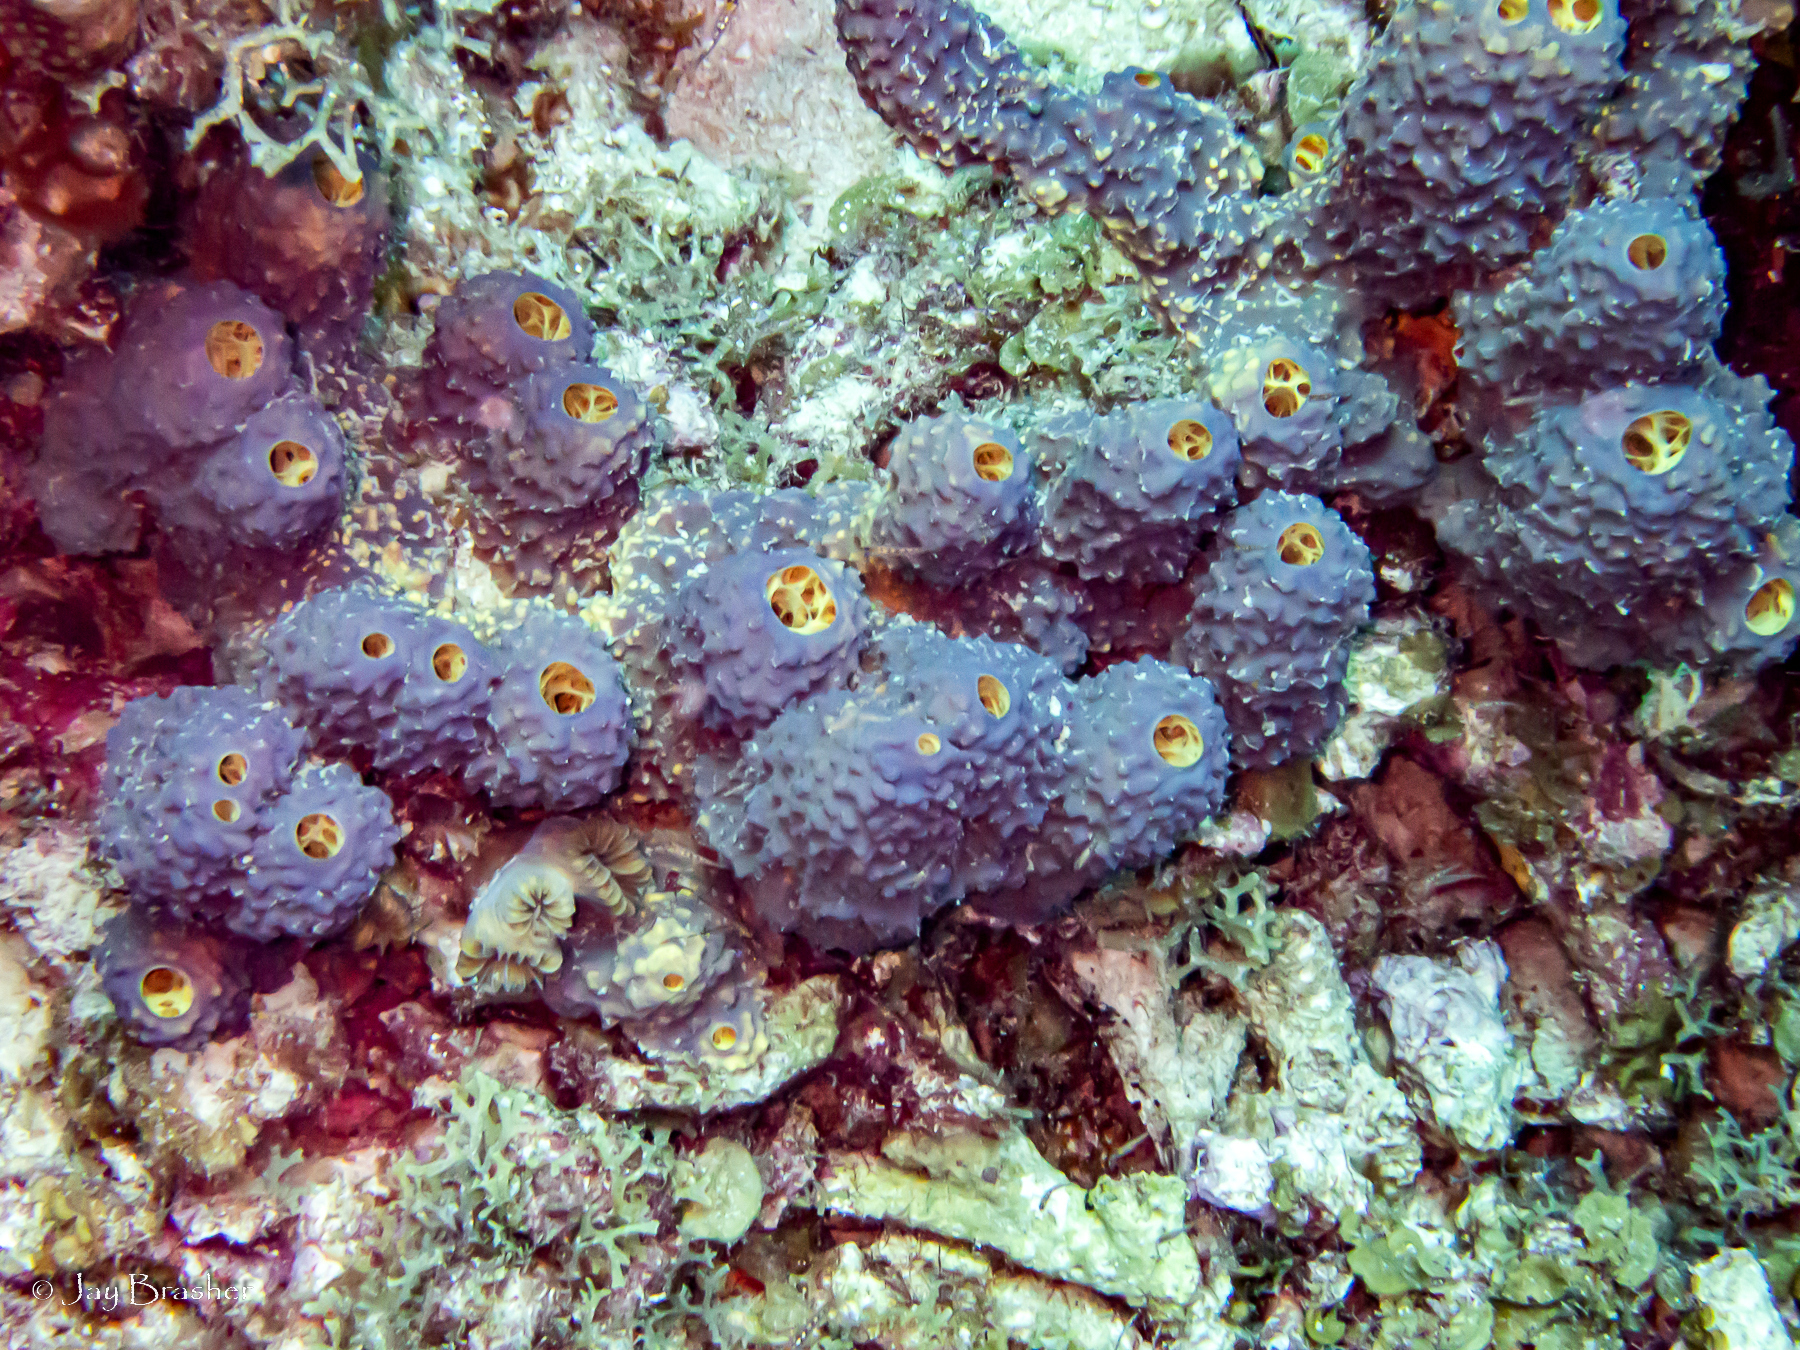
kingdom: Animalia
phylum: Porifera
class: Demospongiae
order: Verongiida
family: Aplysinidae
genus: Aiolochroia
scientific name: Aiolochroia crassa
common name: Branching tube sponge
